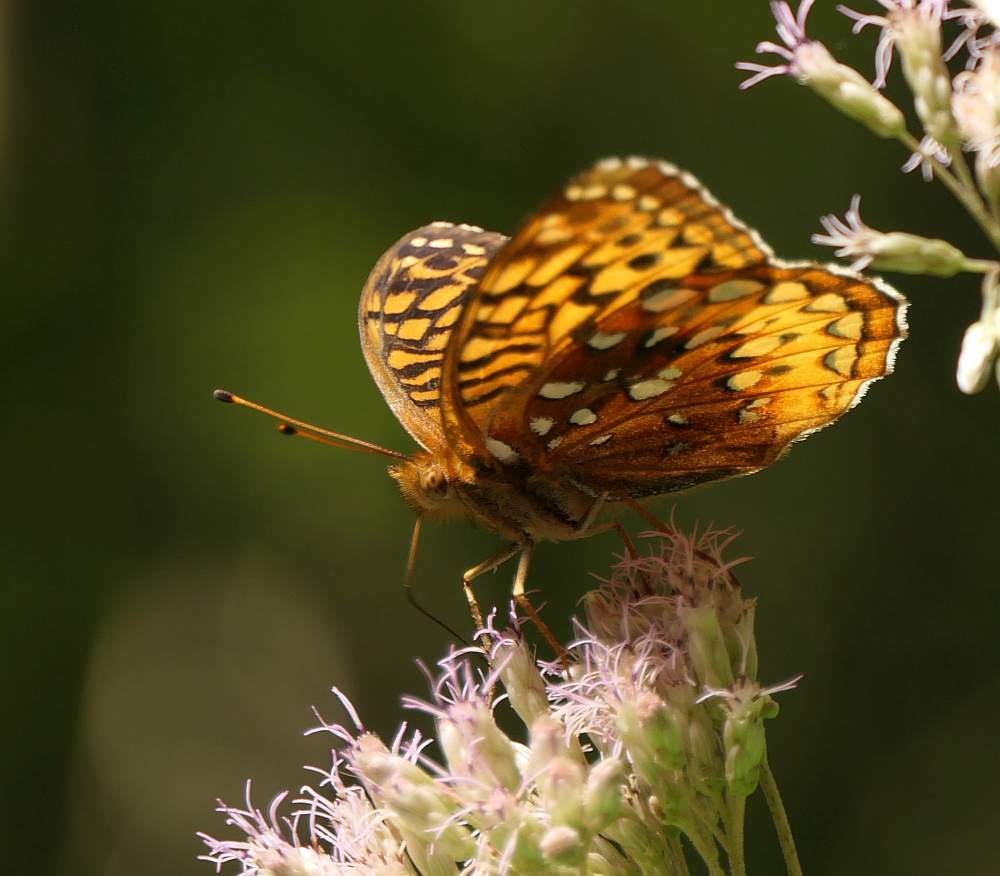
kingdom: Animalia
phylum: Arthropoda
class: Insecta
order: Lepidoptera
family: Nymphalidae
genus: Speyeria
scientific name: Speyeria cybele
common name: Great spangled fritillary
